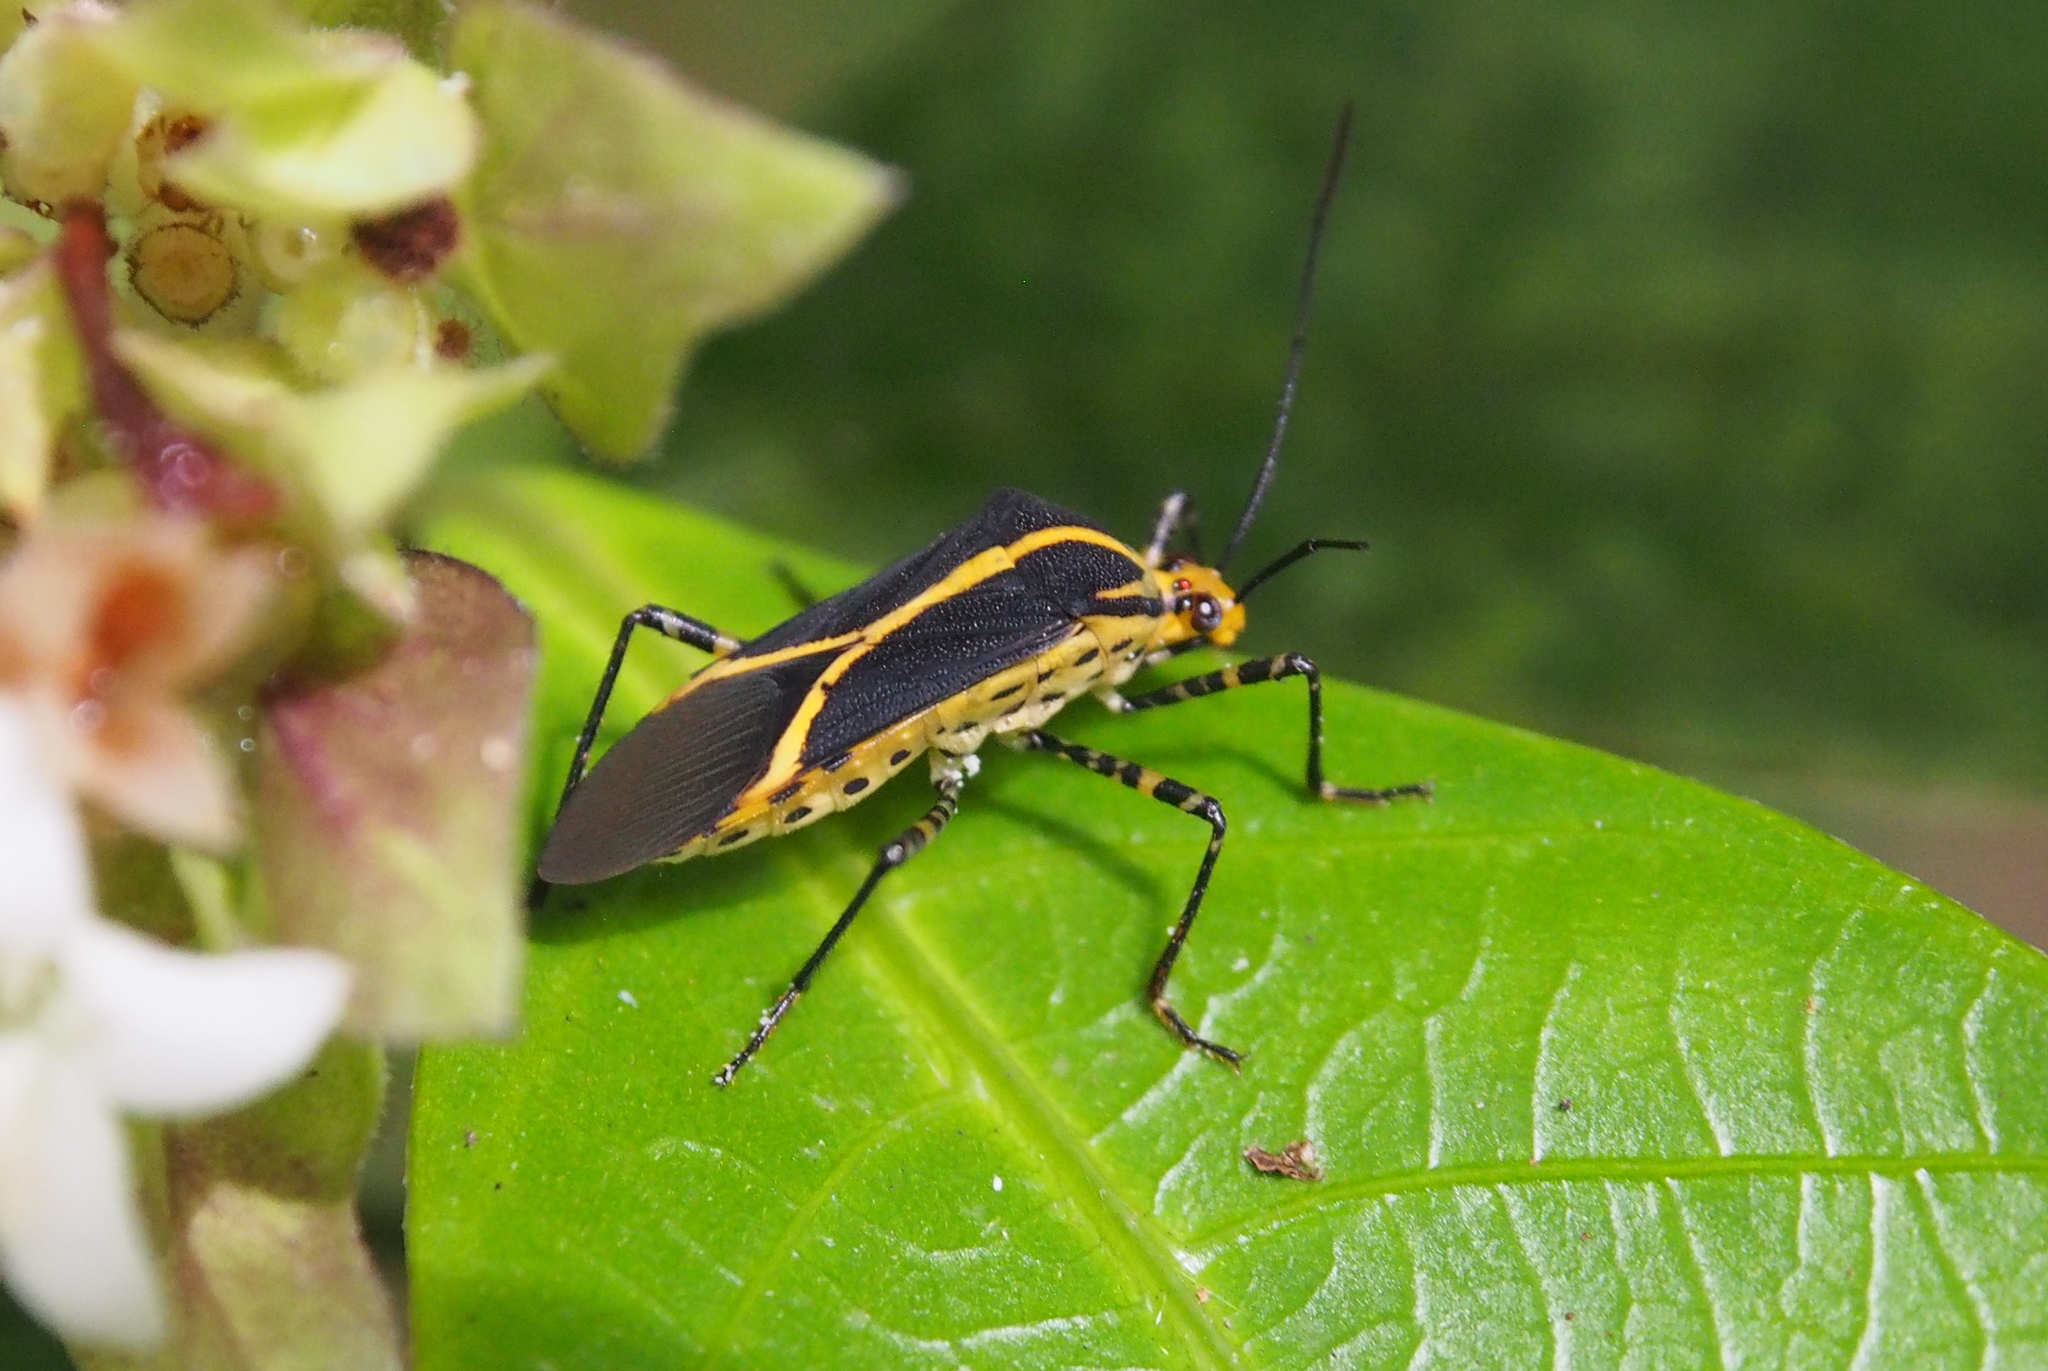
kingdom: Animalia
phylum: Arthropoda
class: Insecta
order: Hemiptera
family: Coreidae
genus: Hypselonotus
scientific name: Hypselonotus linea
